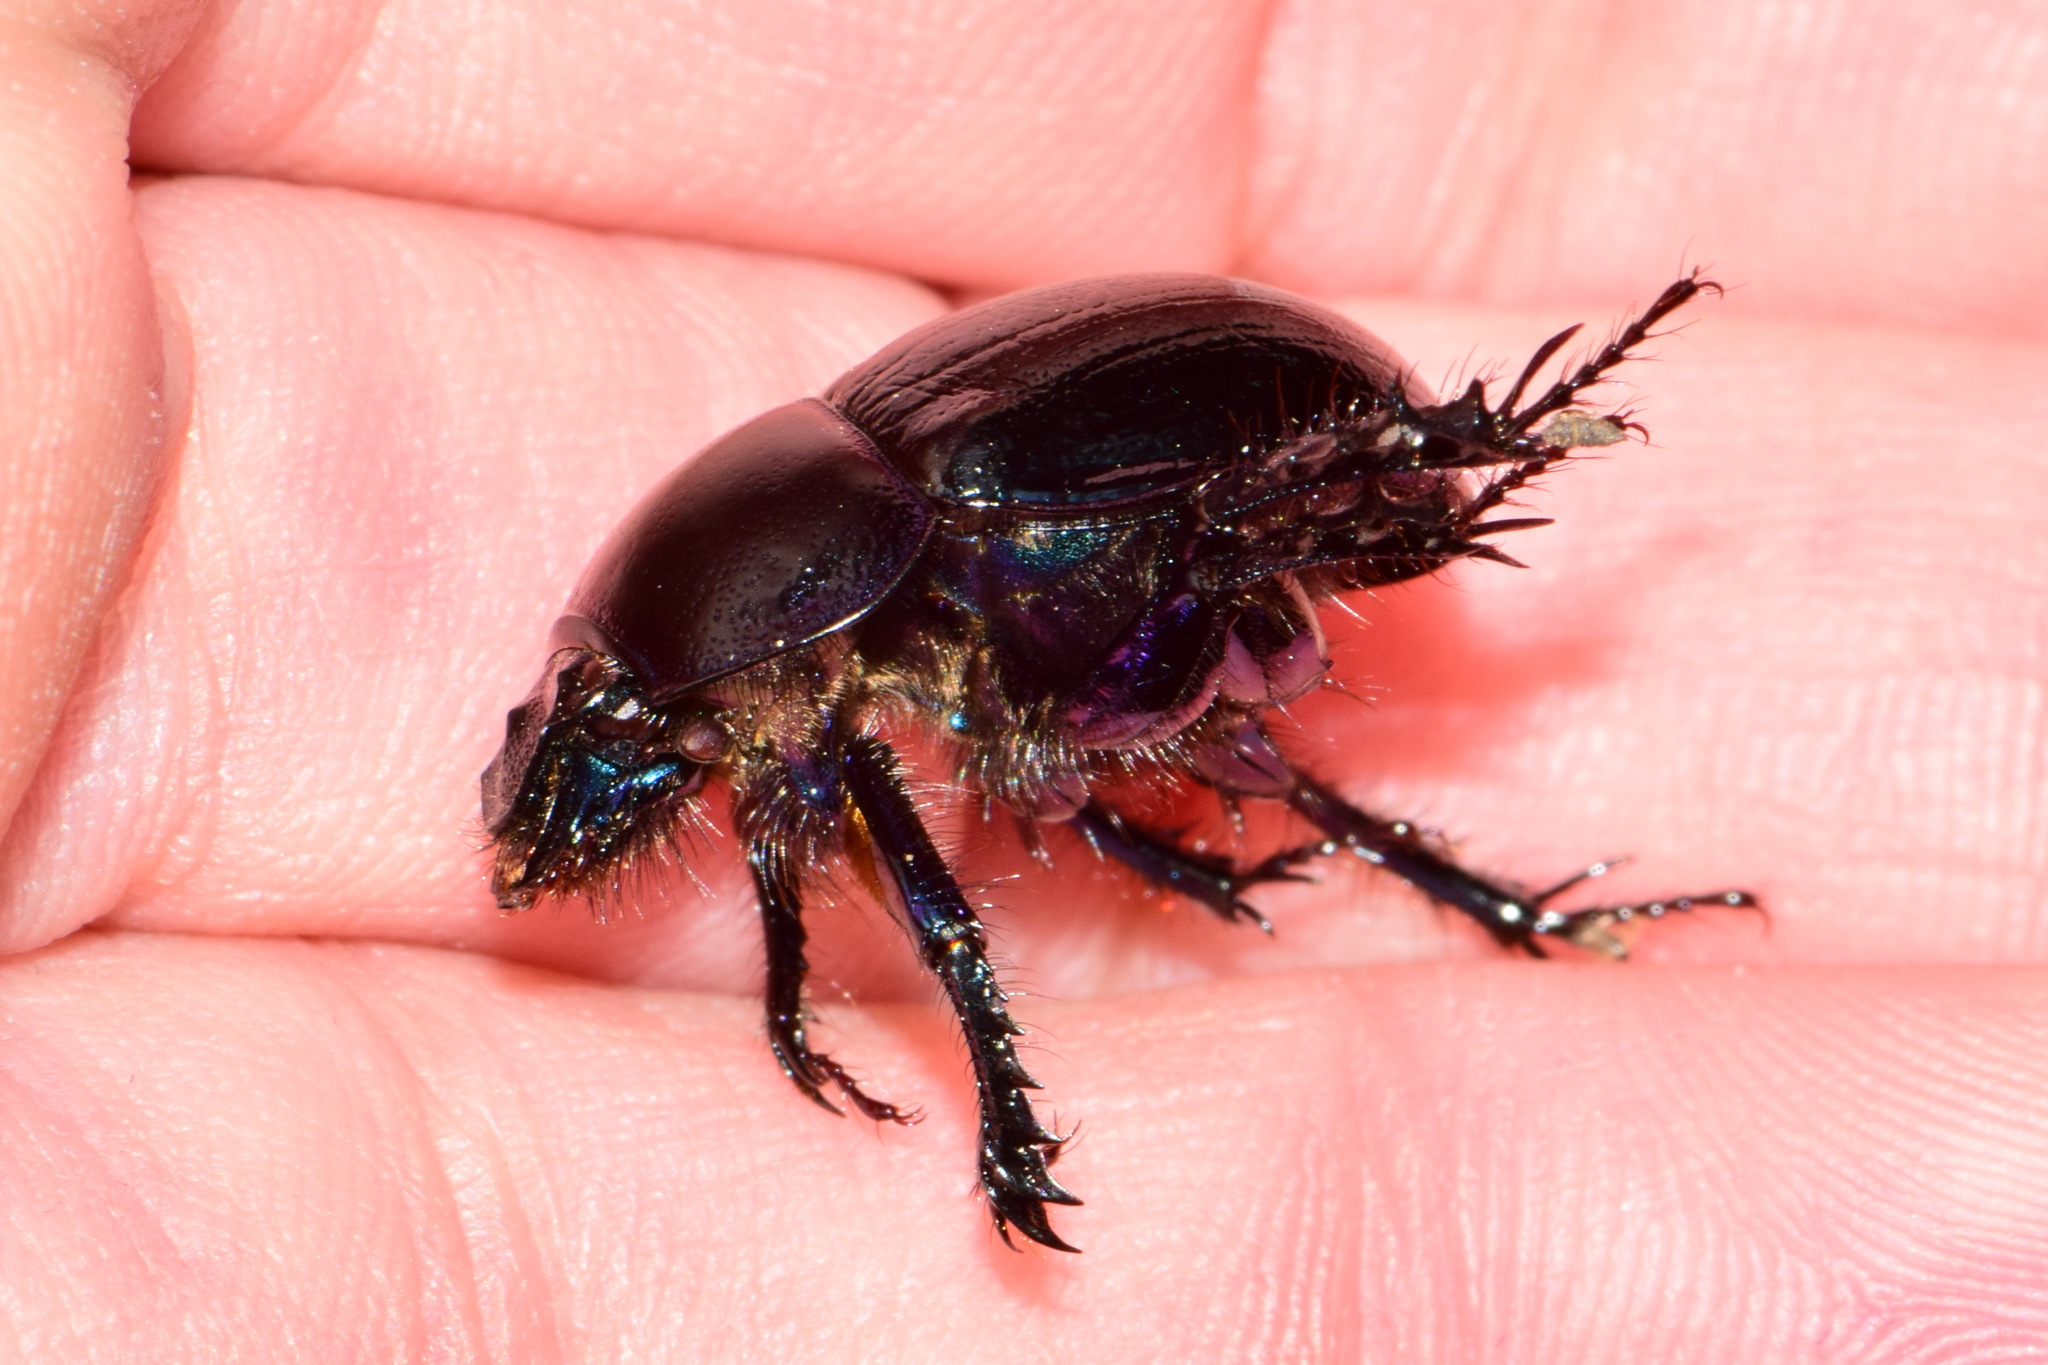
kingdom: Animalia
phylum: Arthropoda
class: Insecta
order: Coleoptera
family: Geotrupidae
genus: Anoplotrupes
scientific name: Anoplotrupes stercorosus
